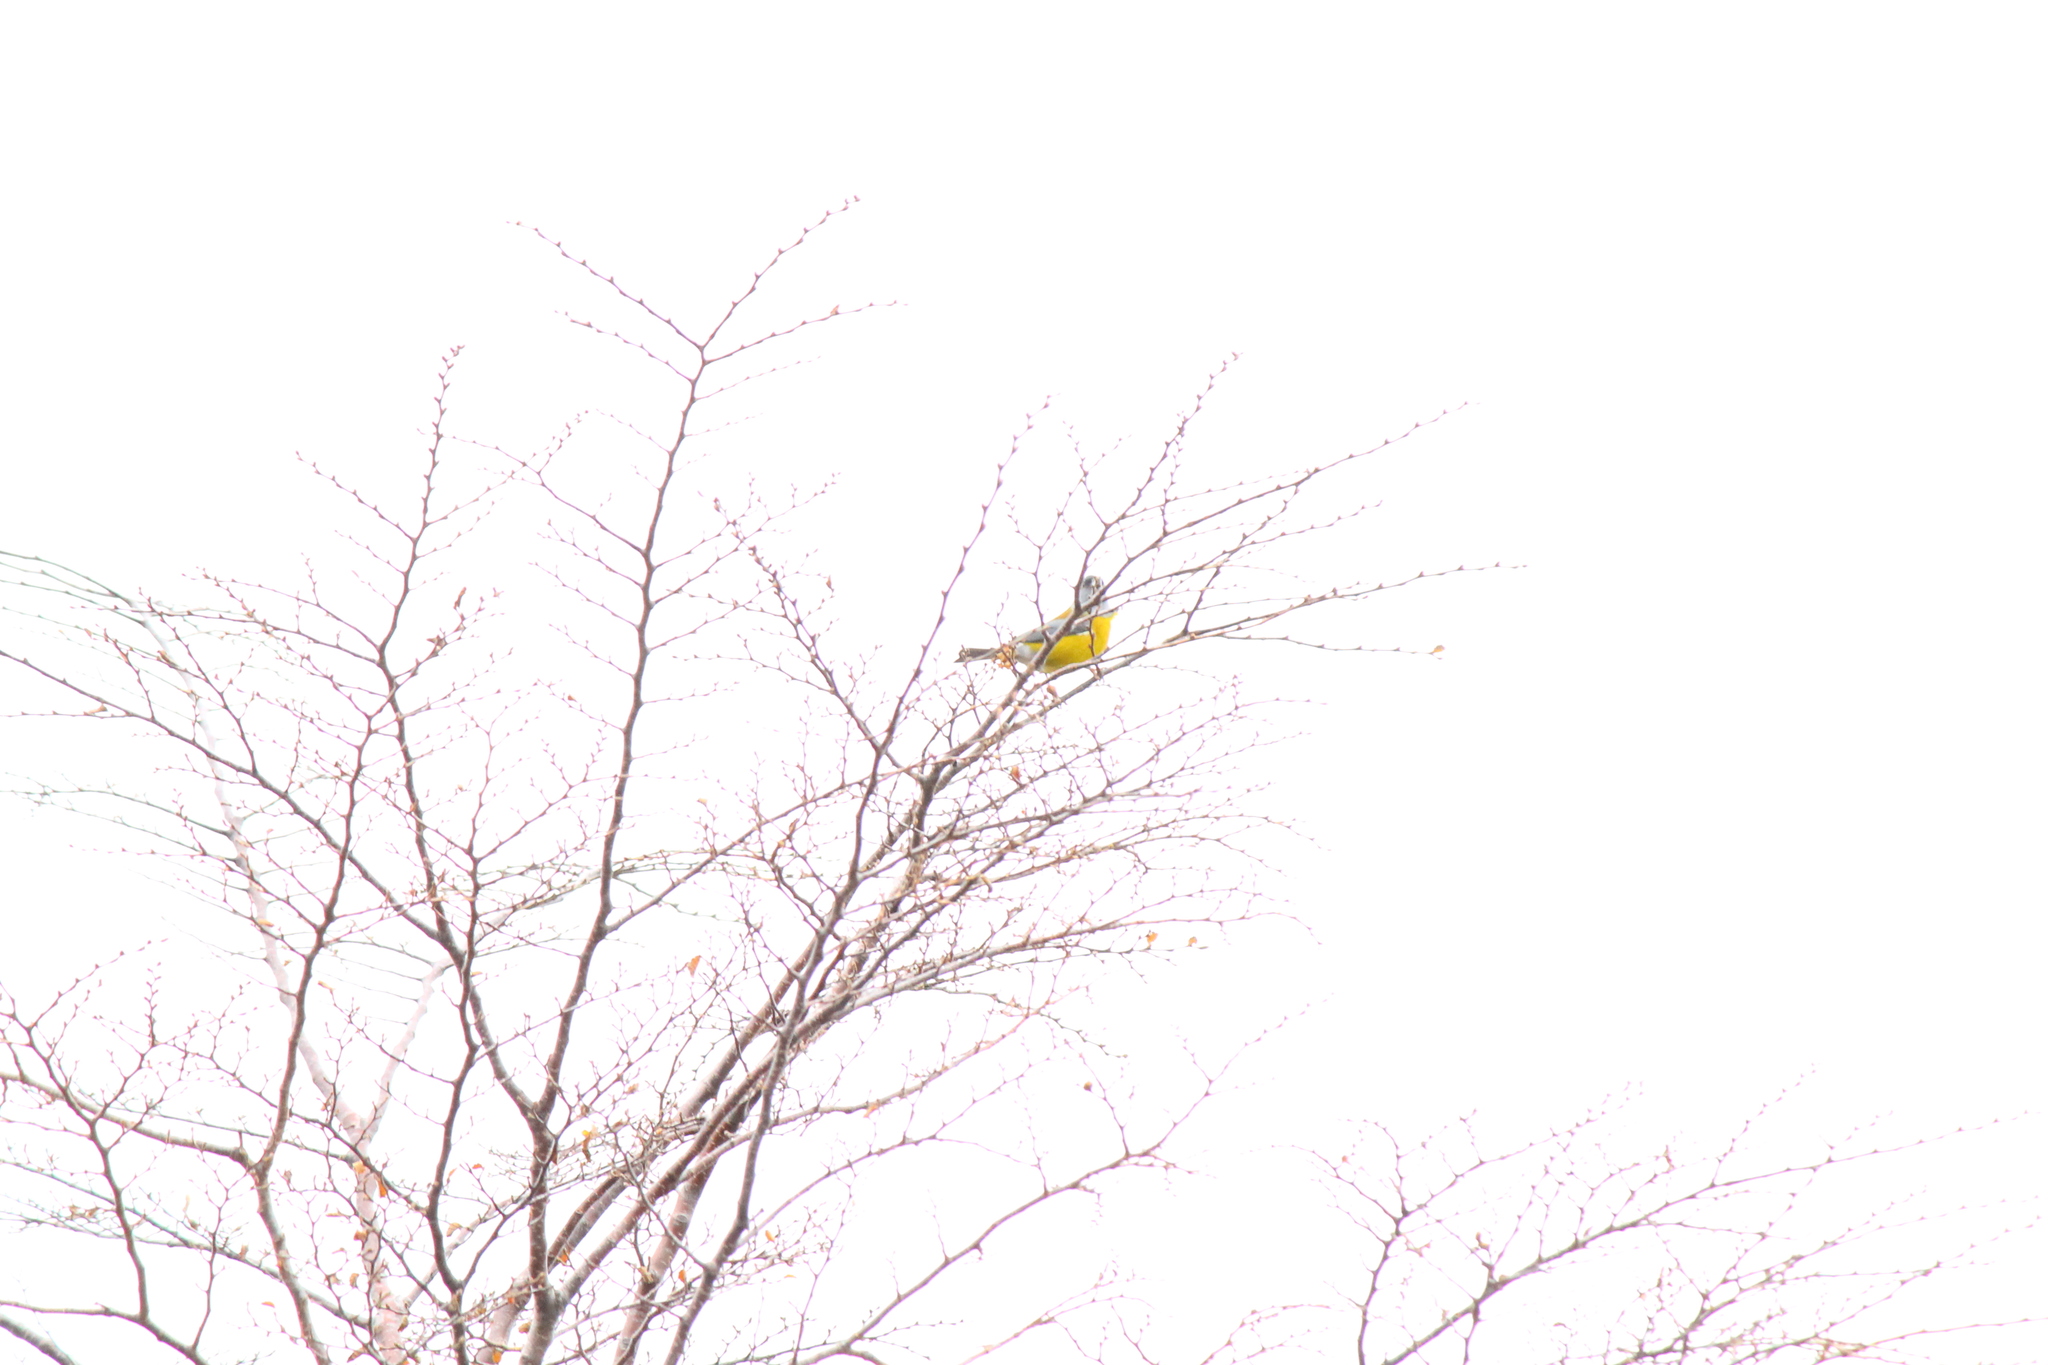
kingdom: Animalia
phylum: Chordata
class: Aves
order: Passeriformes
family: Thraupidae
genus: Phrygilus
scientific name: Phrygilus patagonicus
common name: Patagonian sierra finch
